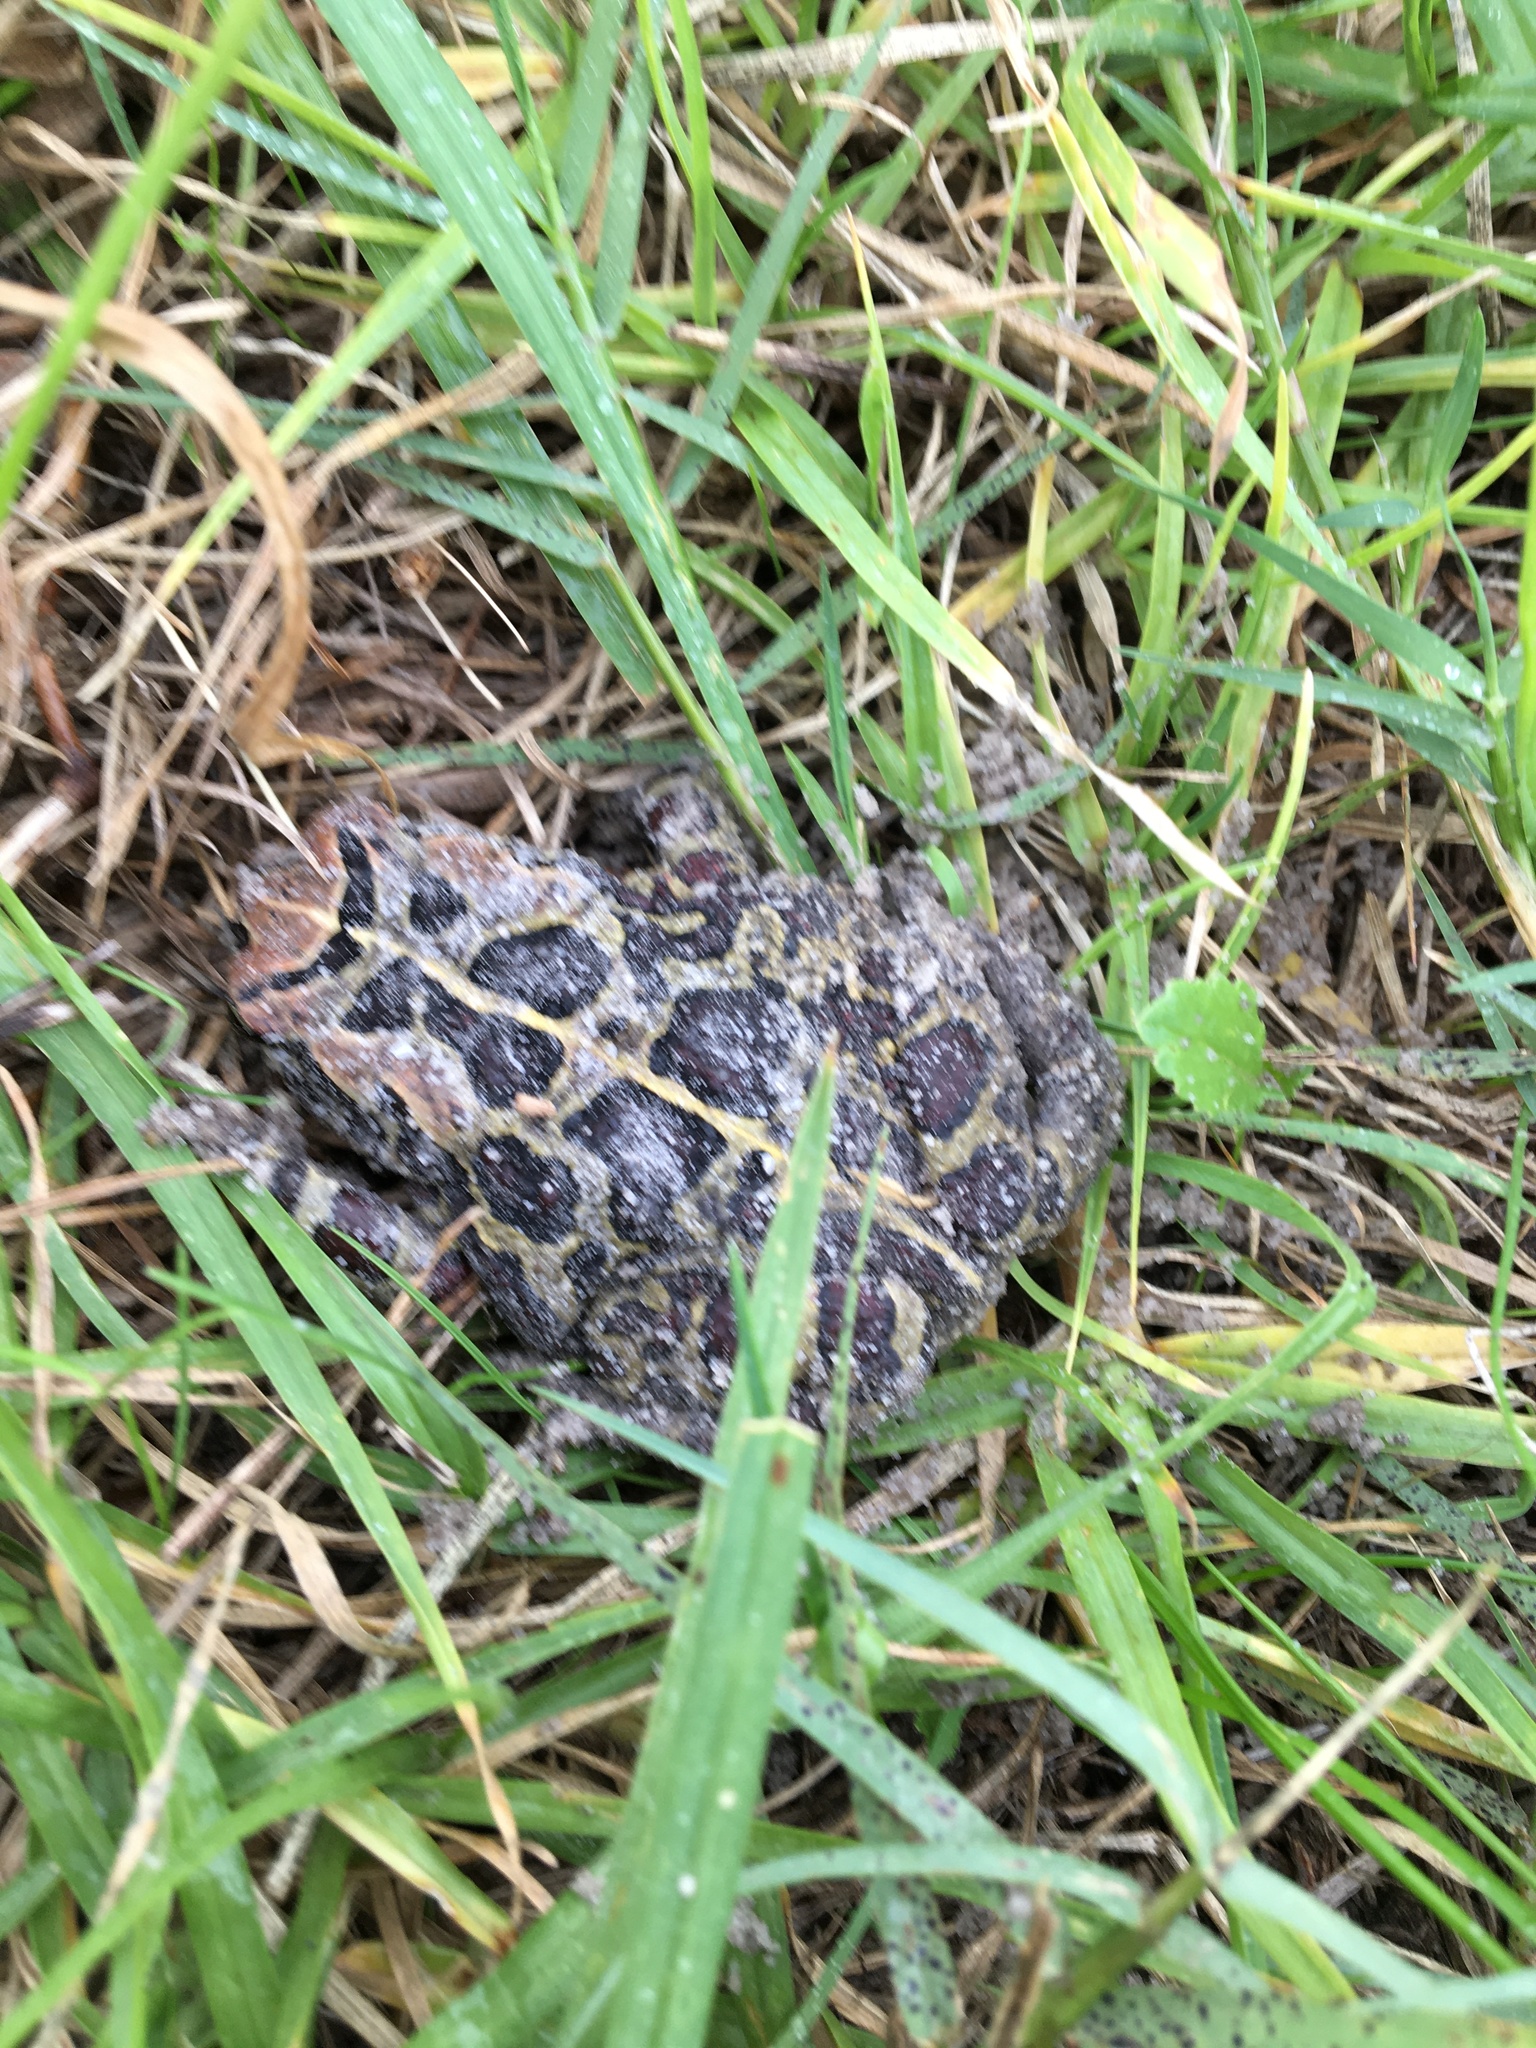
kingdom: Animalia
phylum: Chordata
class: Amphibia
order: Anura
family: Bufonidae
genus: Sclerophrys
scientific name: Sclerophrys pantherina
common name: Panther toad
